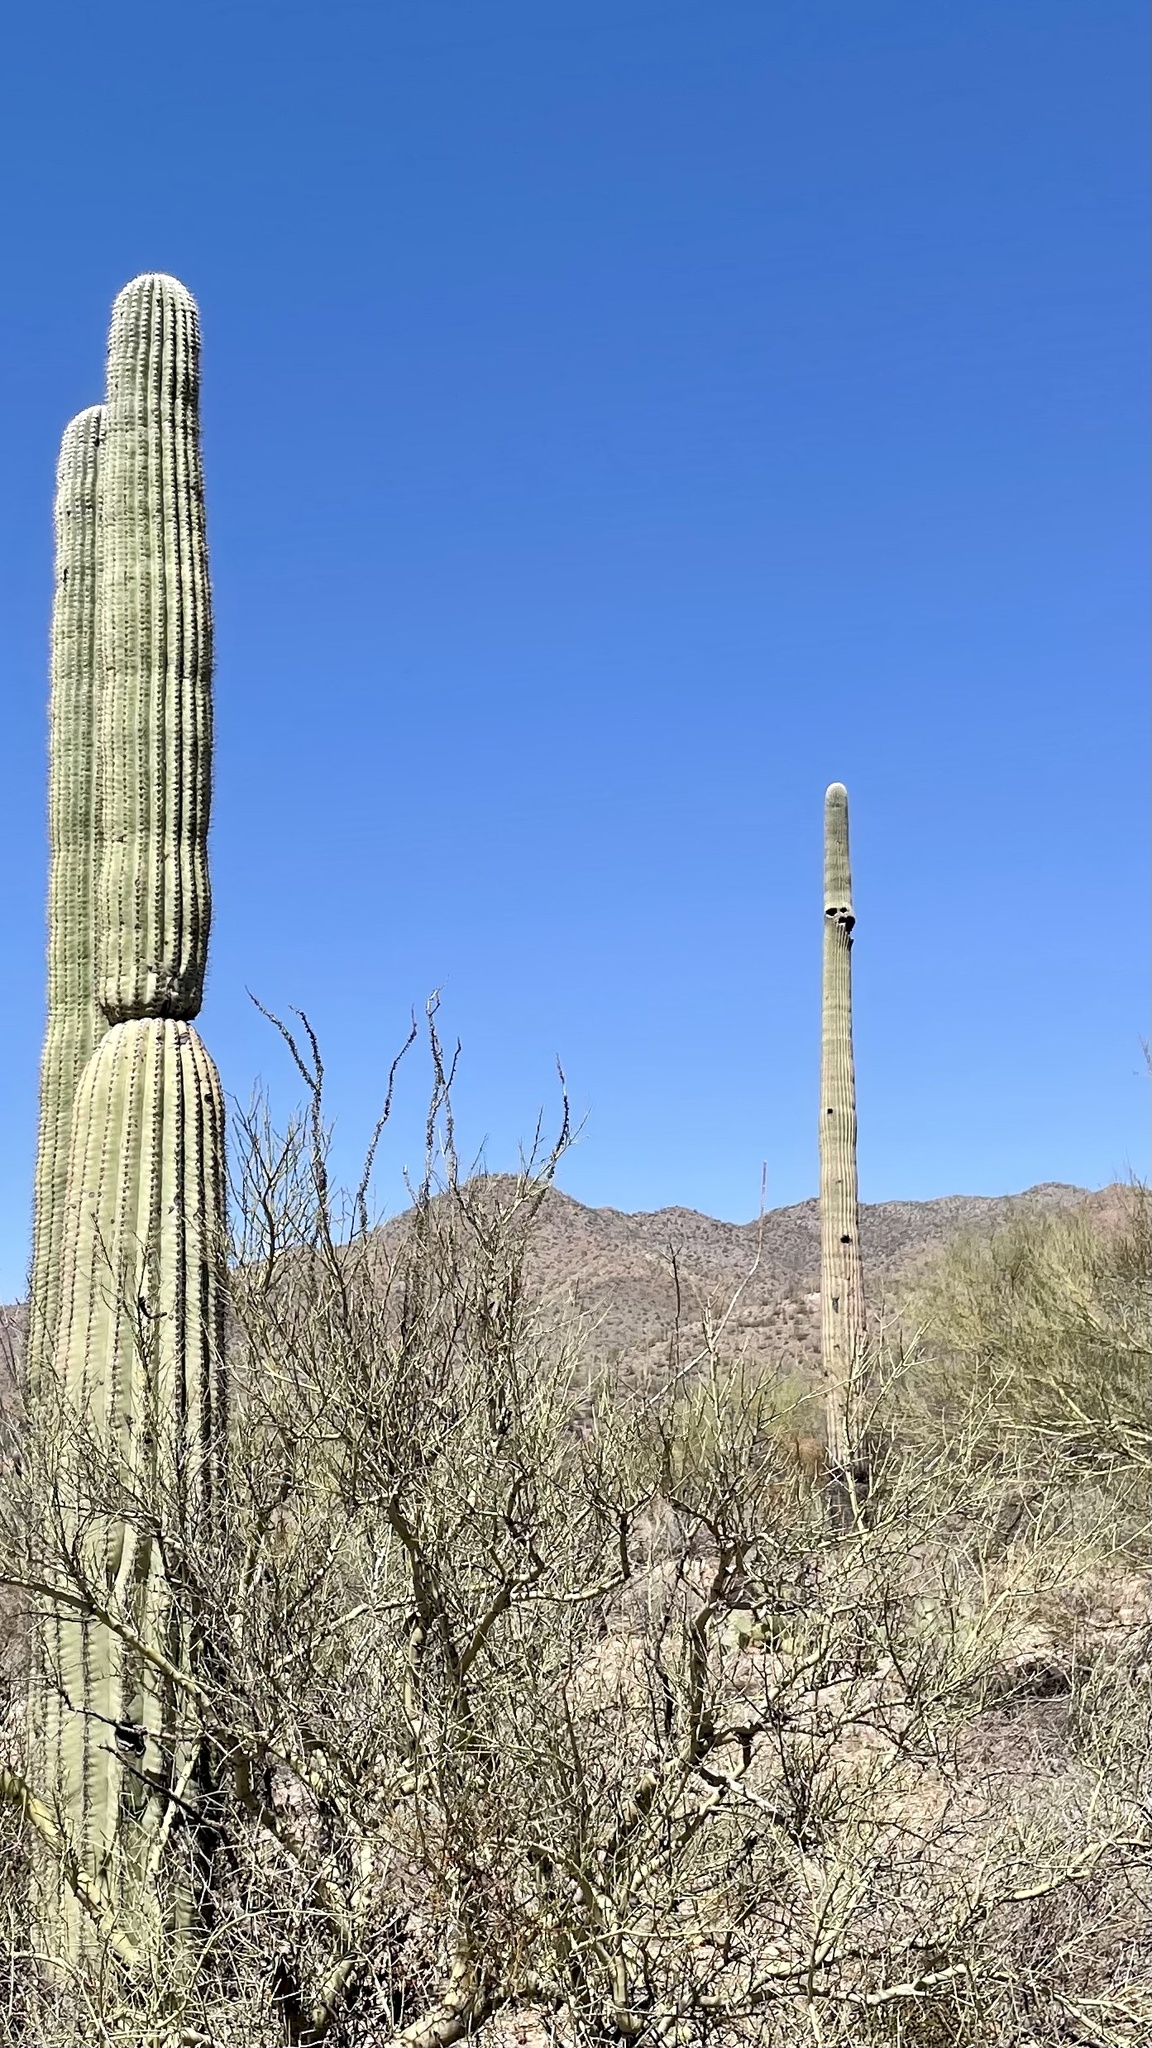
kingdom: Plantae
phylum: Tracheophyta
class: Magnoliopsida
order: Caryophyllales
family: Cactaceae
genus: Carnegiea
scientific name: Carnegiea gigantea
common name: Saguaro
